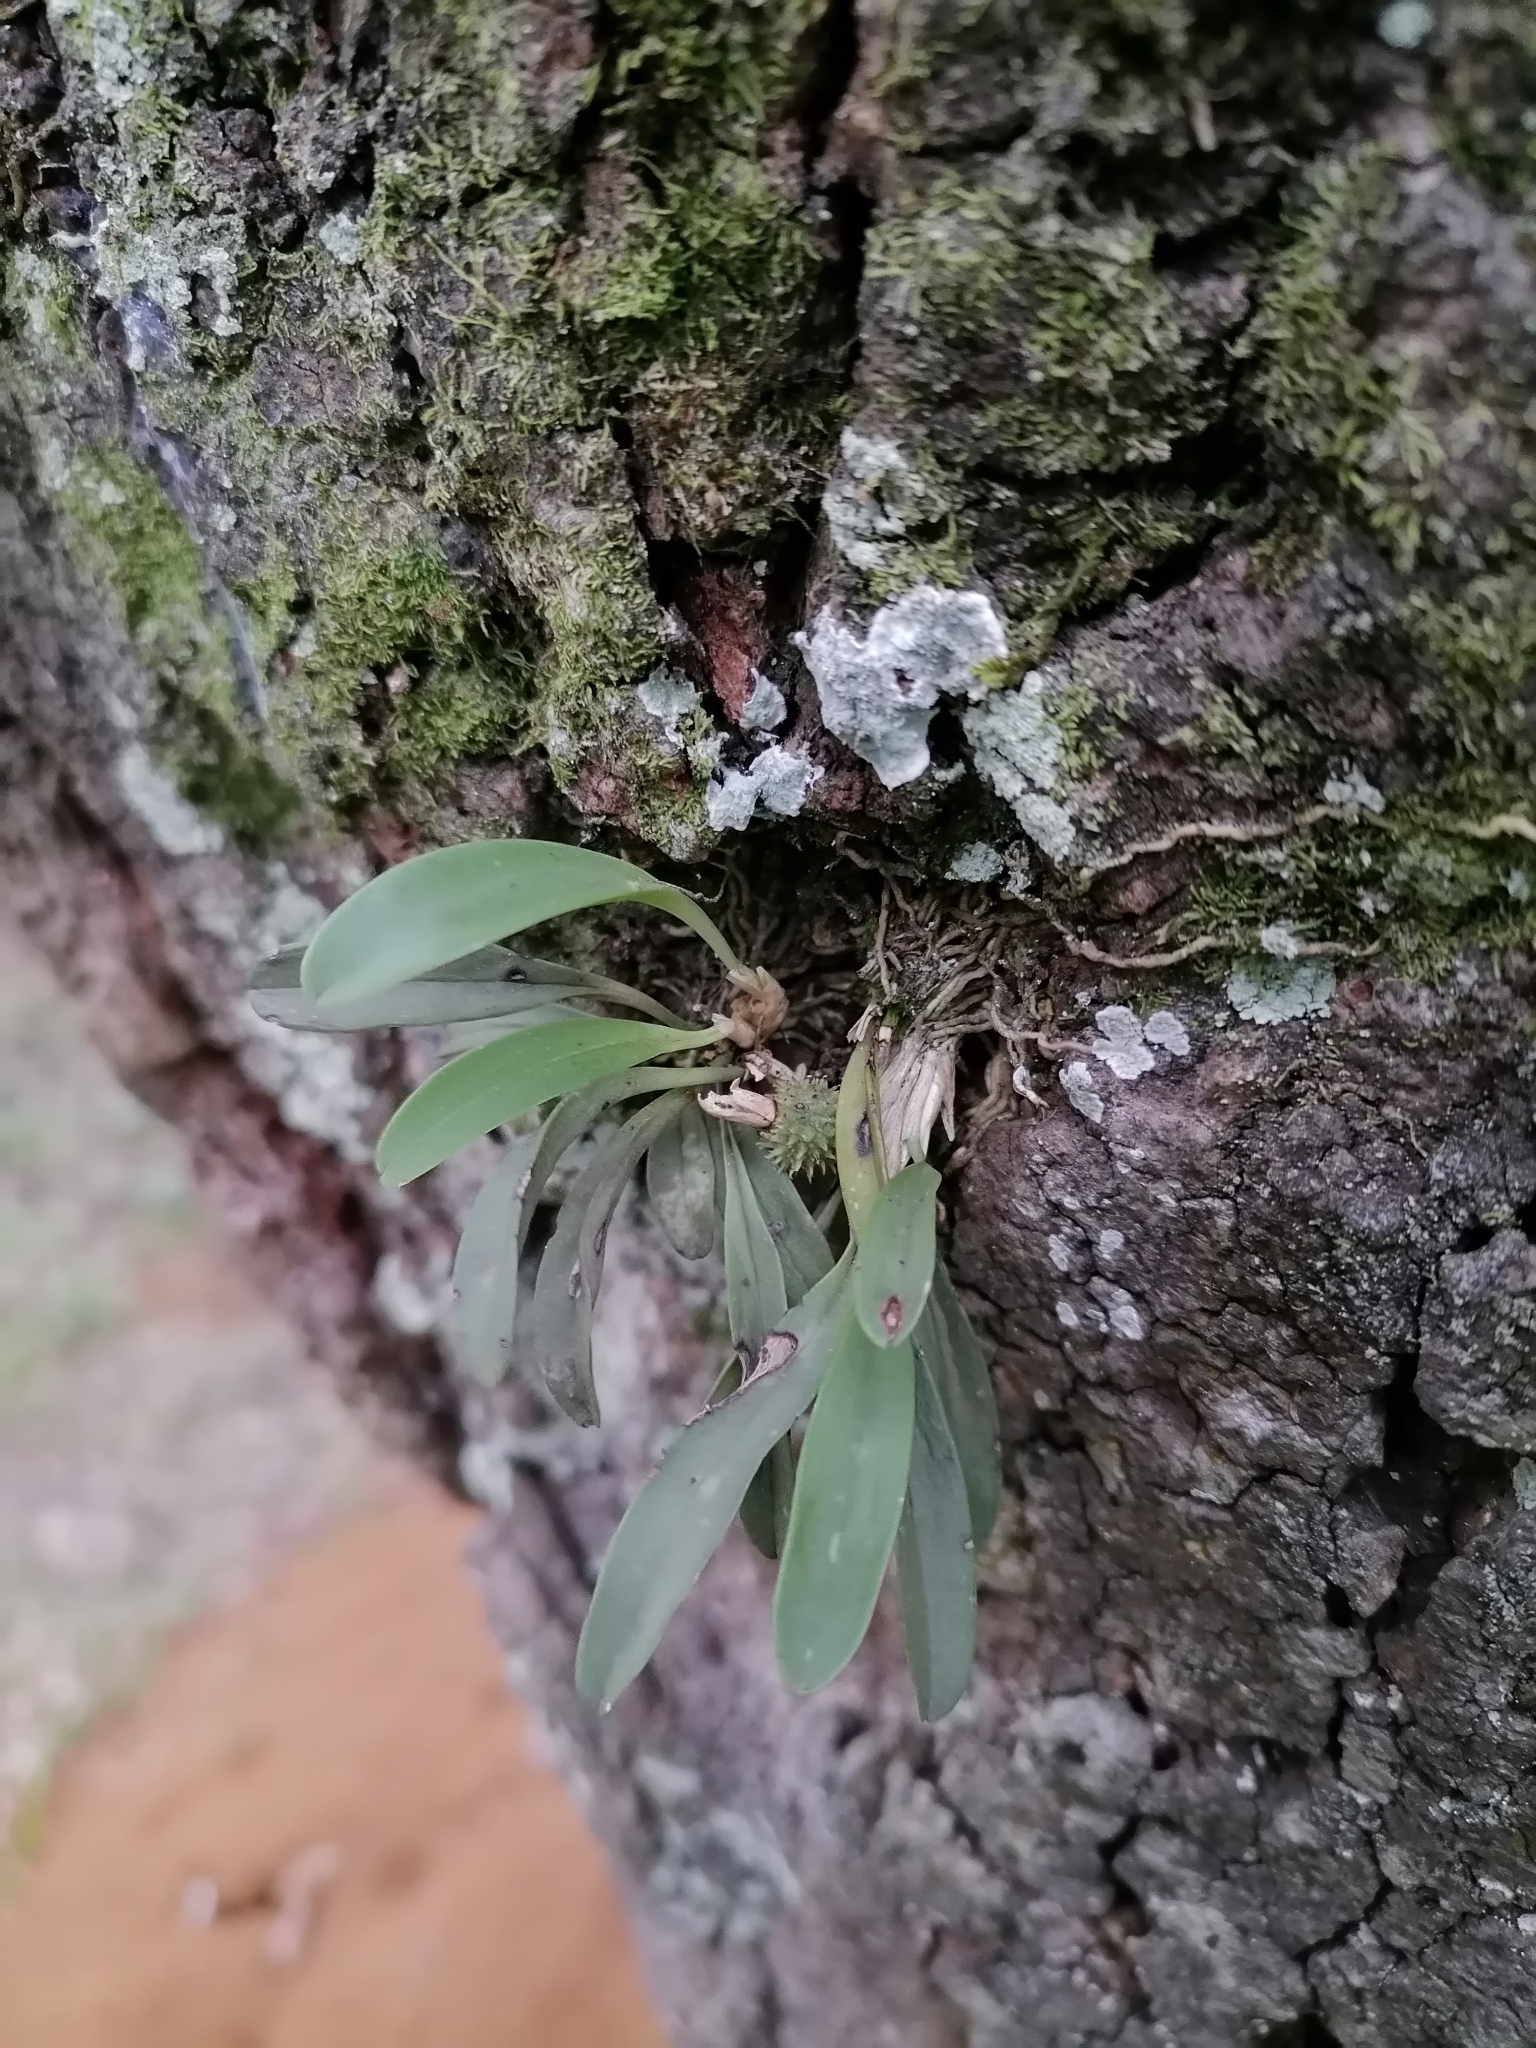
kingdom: Plantae
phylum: Tracheophyta
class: Liliopsida
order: Asparagales
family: Orchidaceae
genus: Specklinia
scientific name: Specklinia tribuloides
